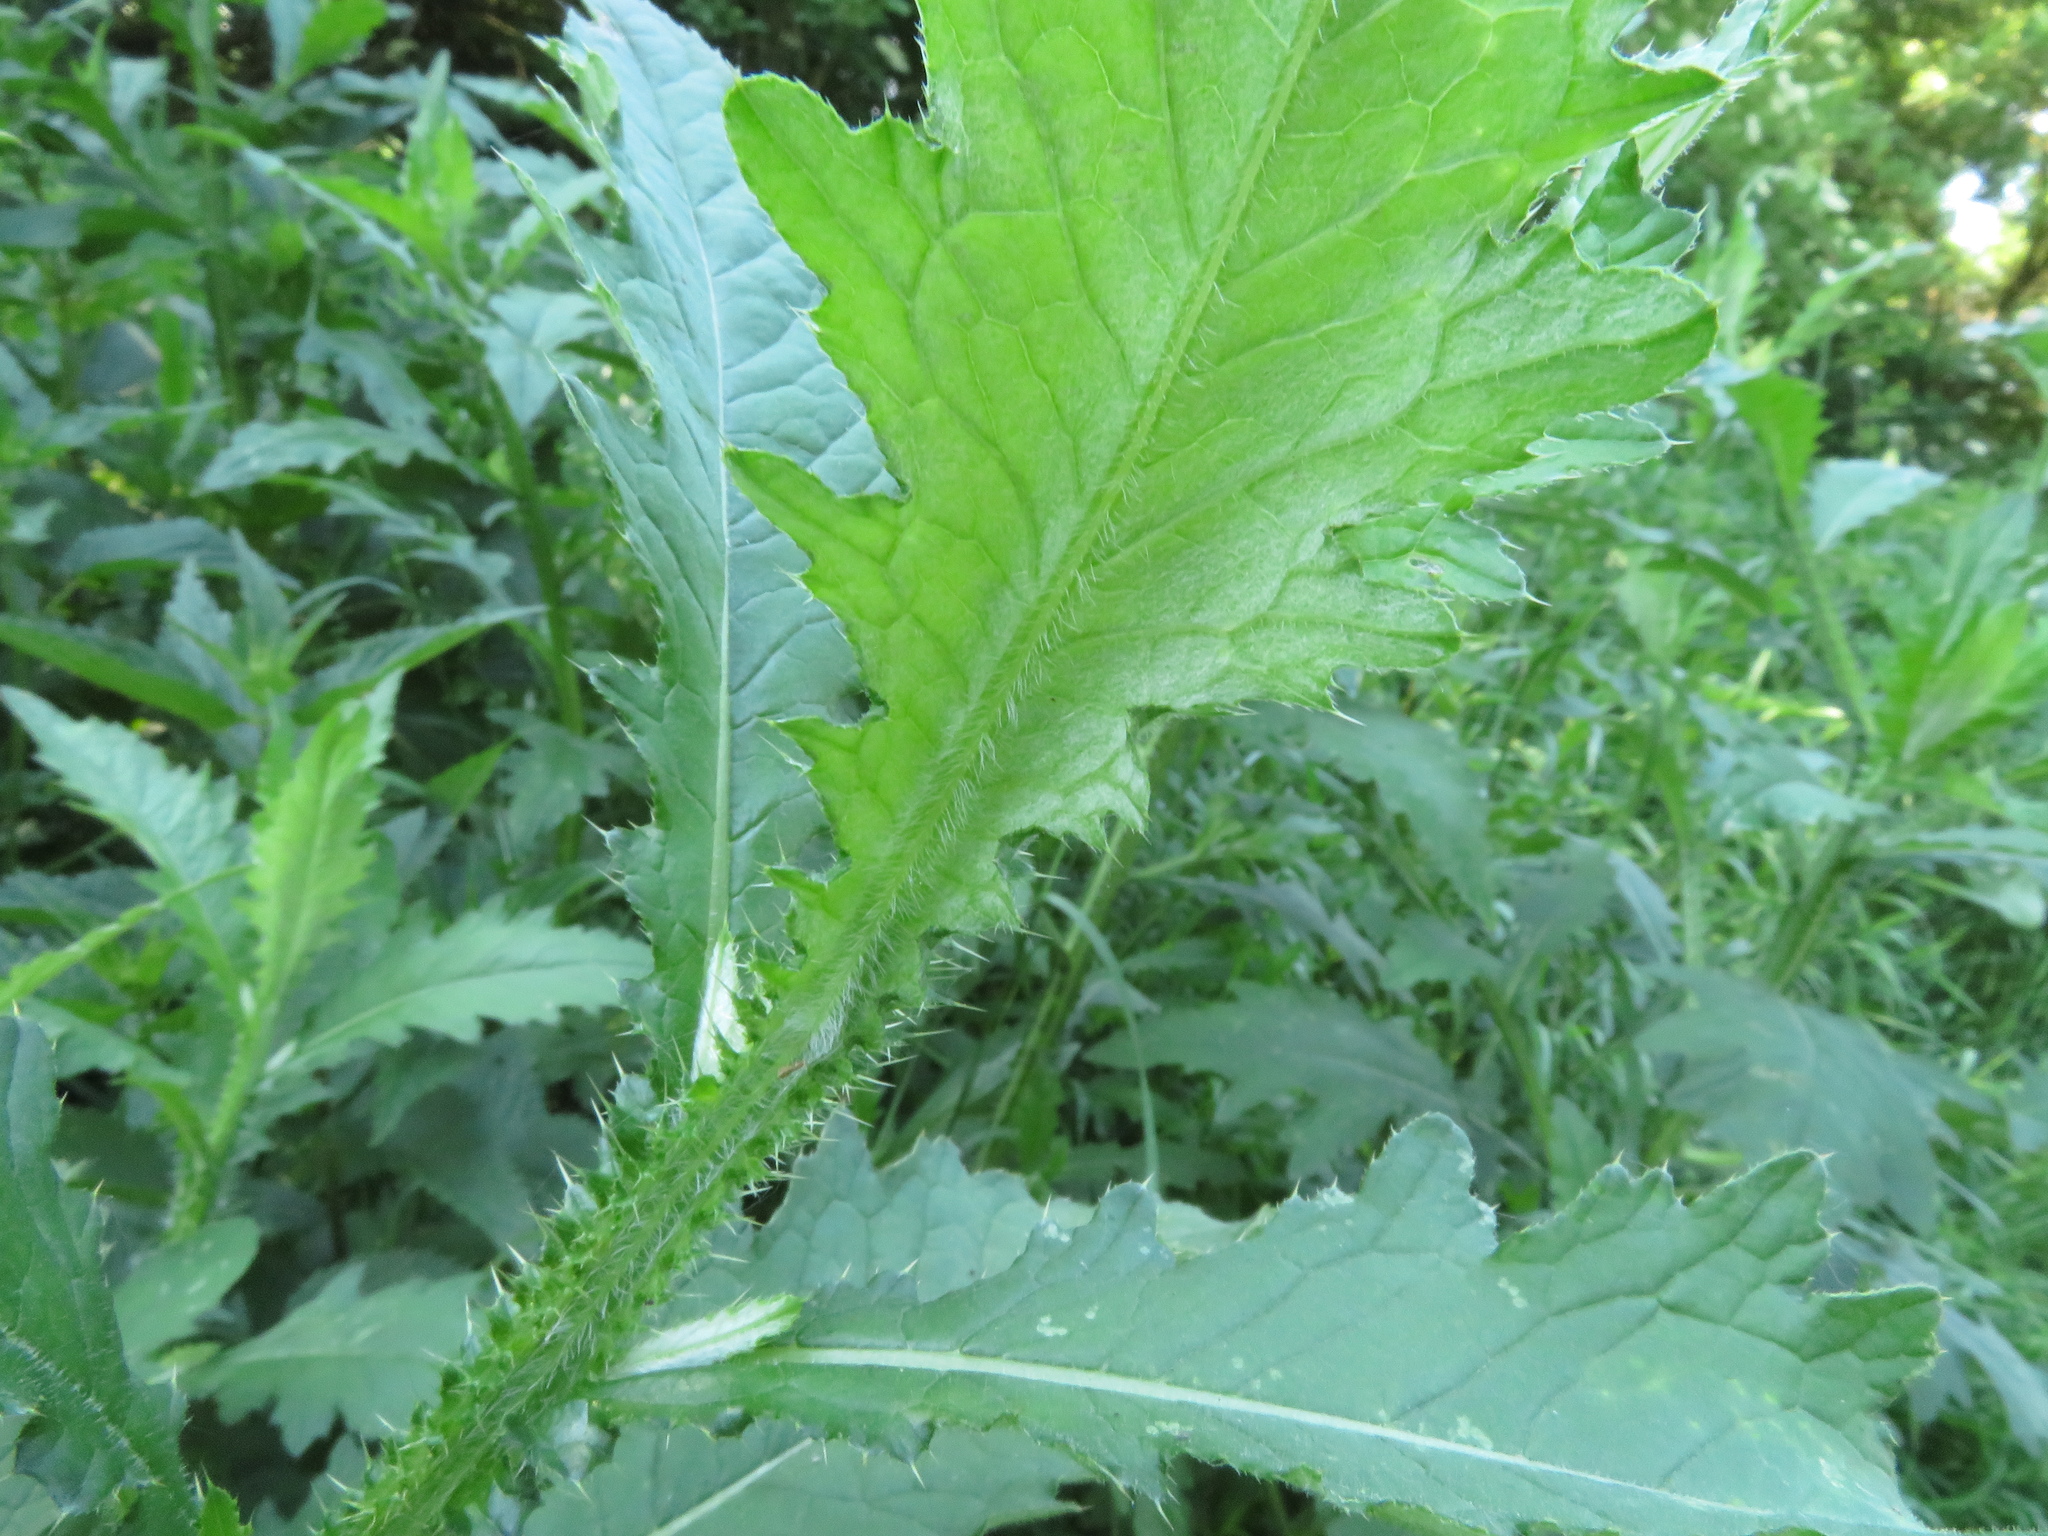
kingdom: Plantae
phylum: Tracheophyta
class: Magnoliopsida
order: Asterales
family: Asteraceae
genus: Carduus
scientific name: Carduus crispus
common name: Welted thistle
